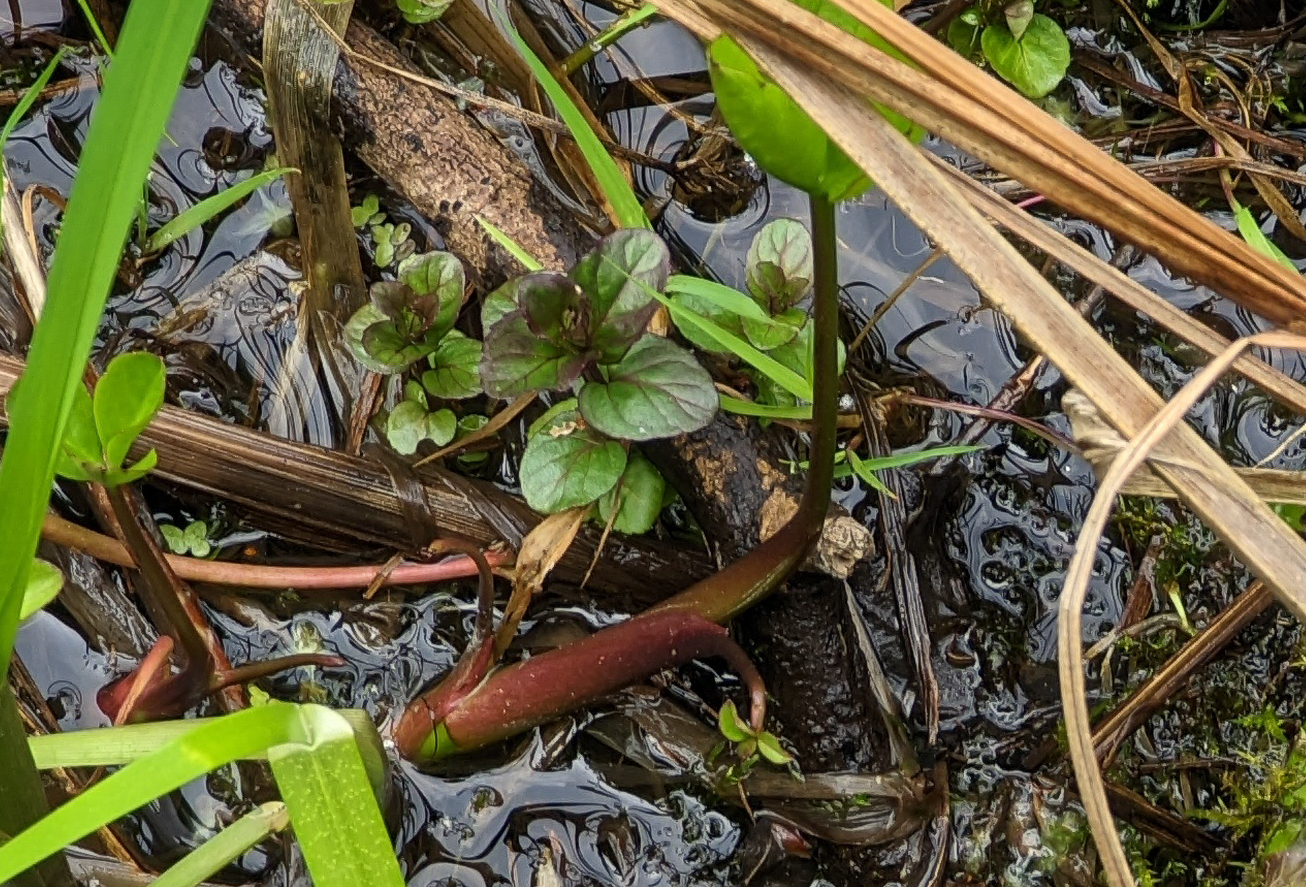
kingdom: Plantae
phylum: Tracheophyta
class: Magnoliopsida
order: Lamiales
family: Lamiaceae
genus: Mentha
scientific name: Mentha aquatica
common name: Water mint
